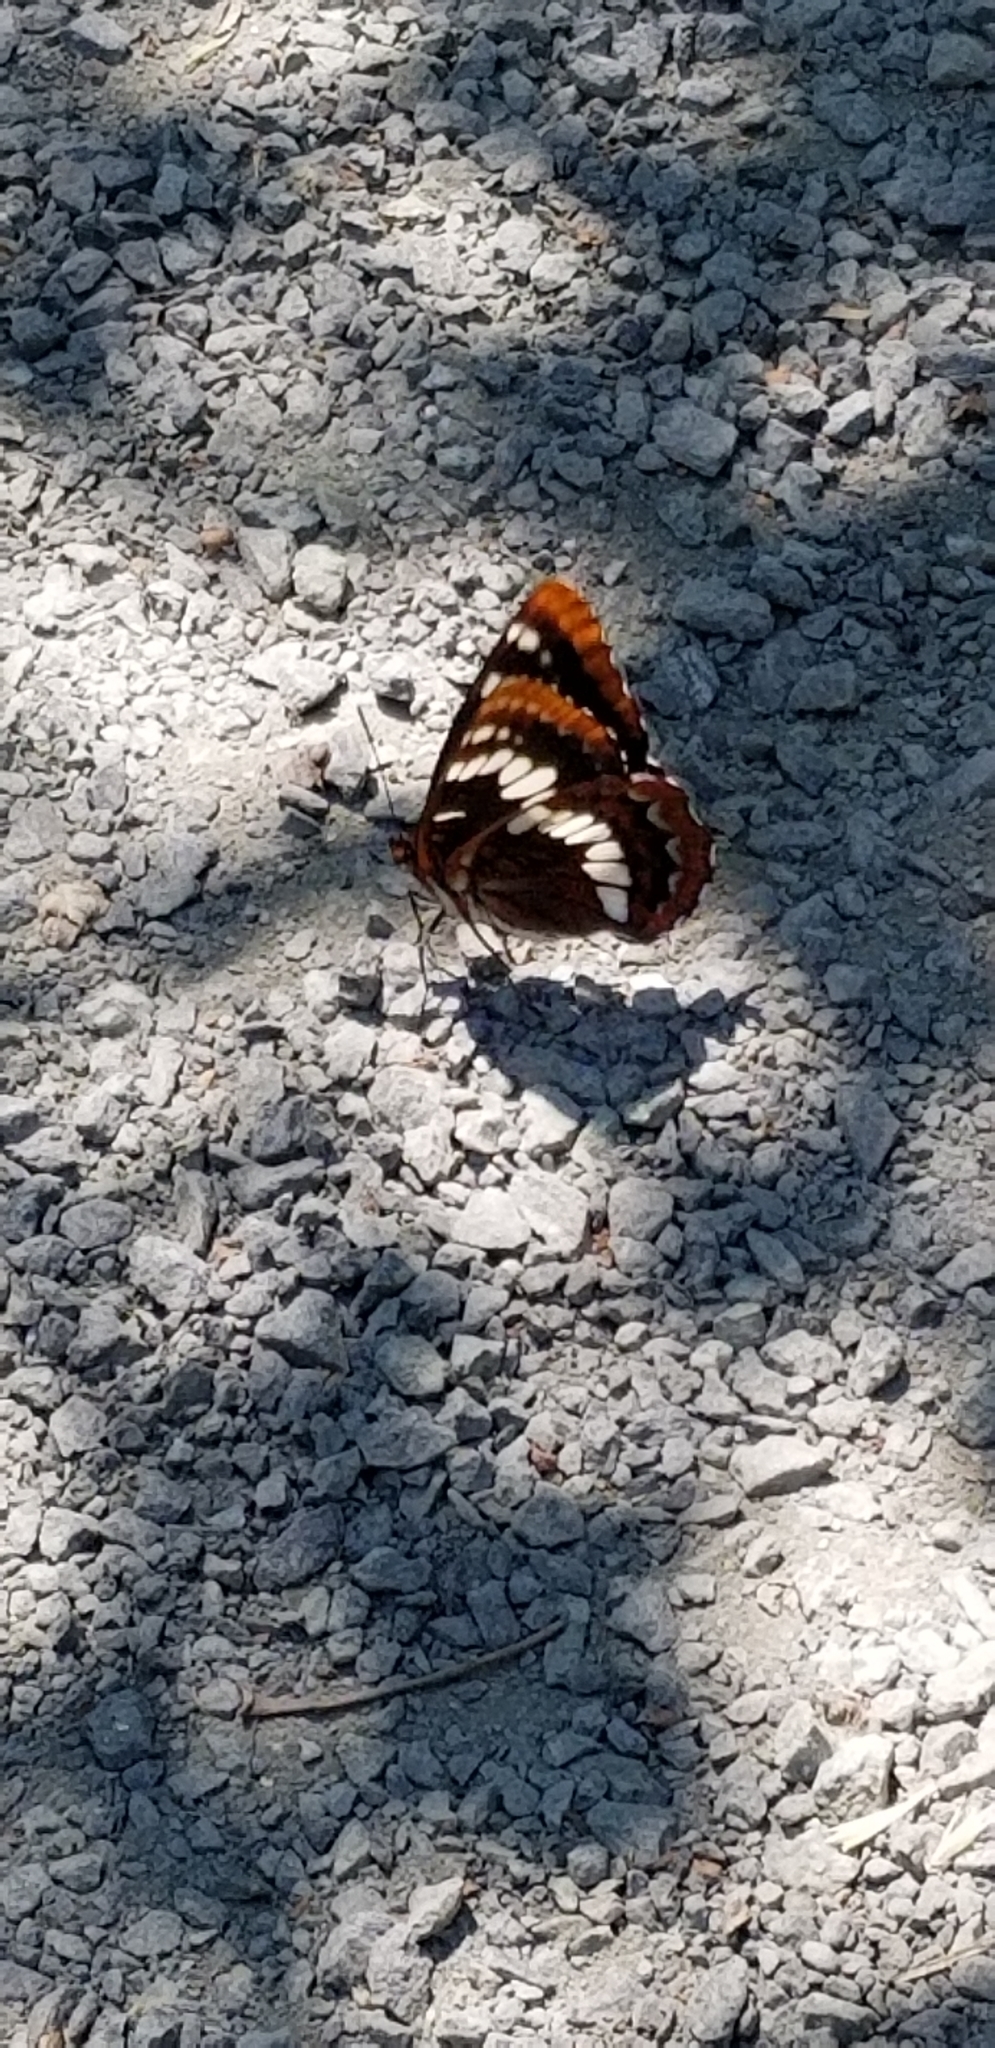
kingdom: Animalia
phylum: Arthropoda
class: Insecta
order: Lepidoptera
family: Nymphalidae
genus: Limenitis
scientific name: Limenitis lorquini
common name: Lorquin's admiral
